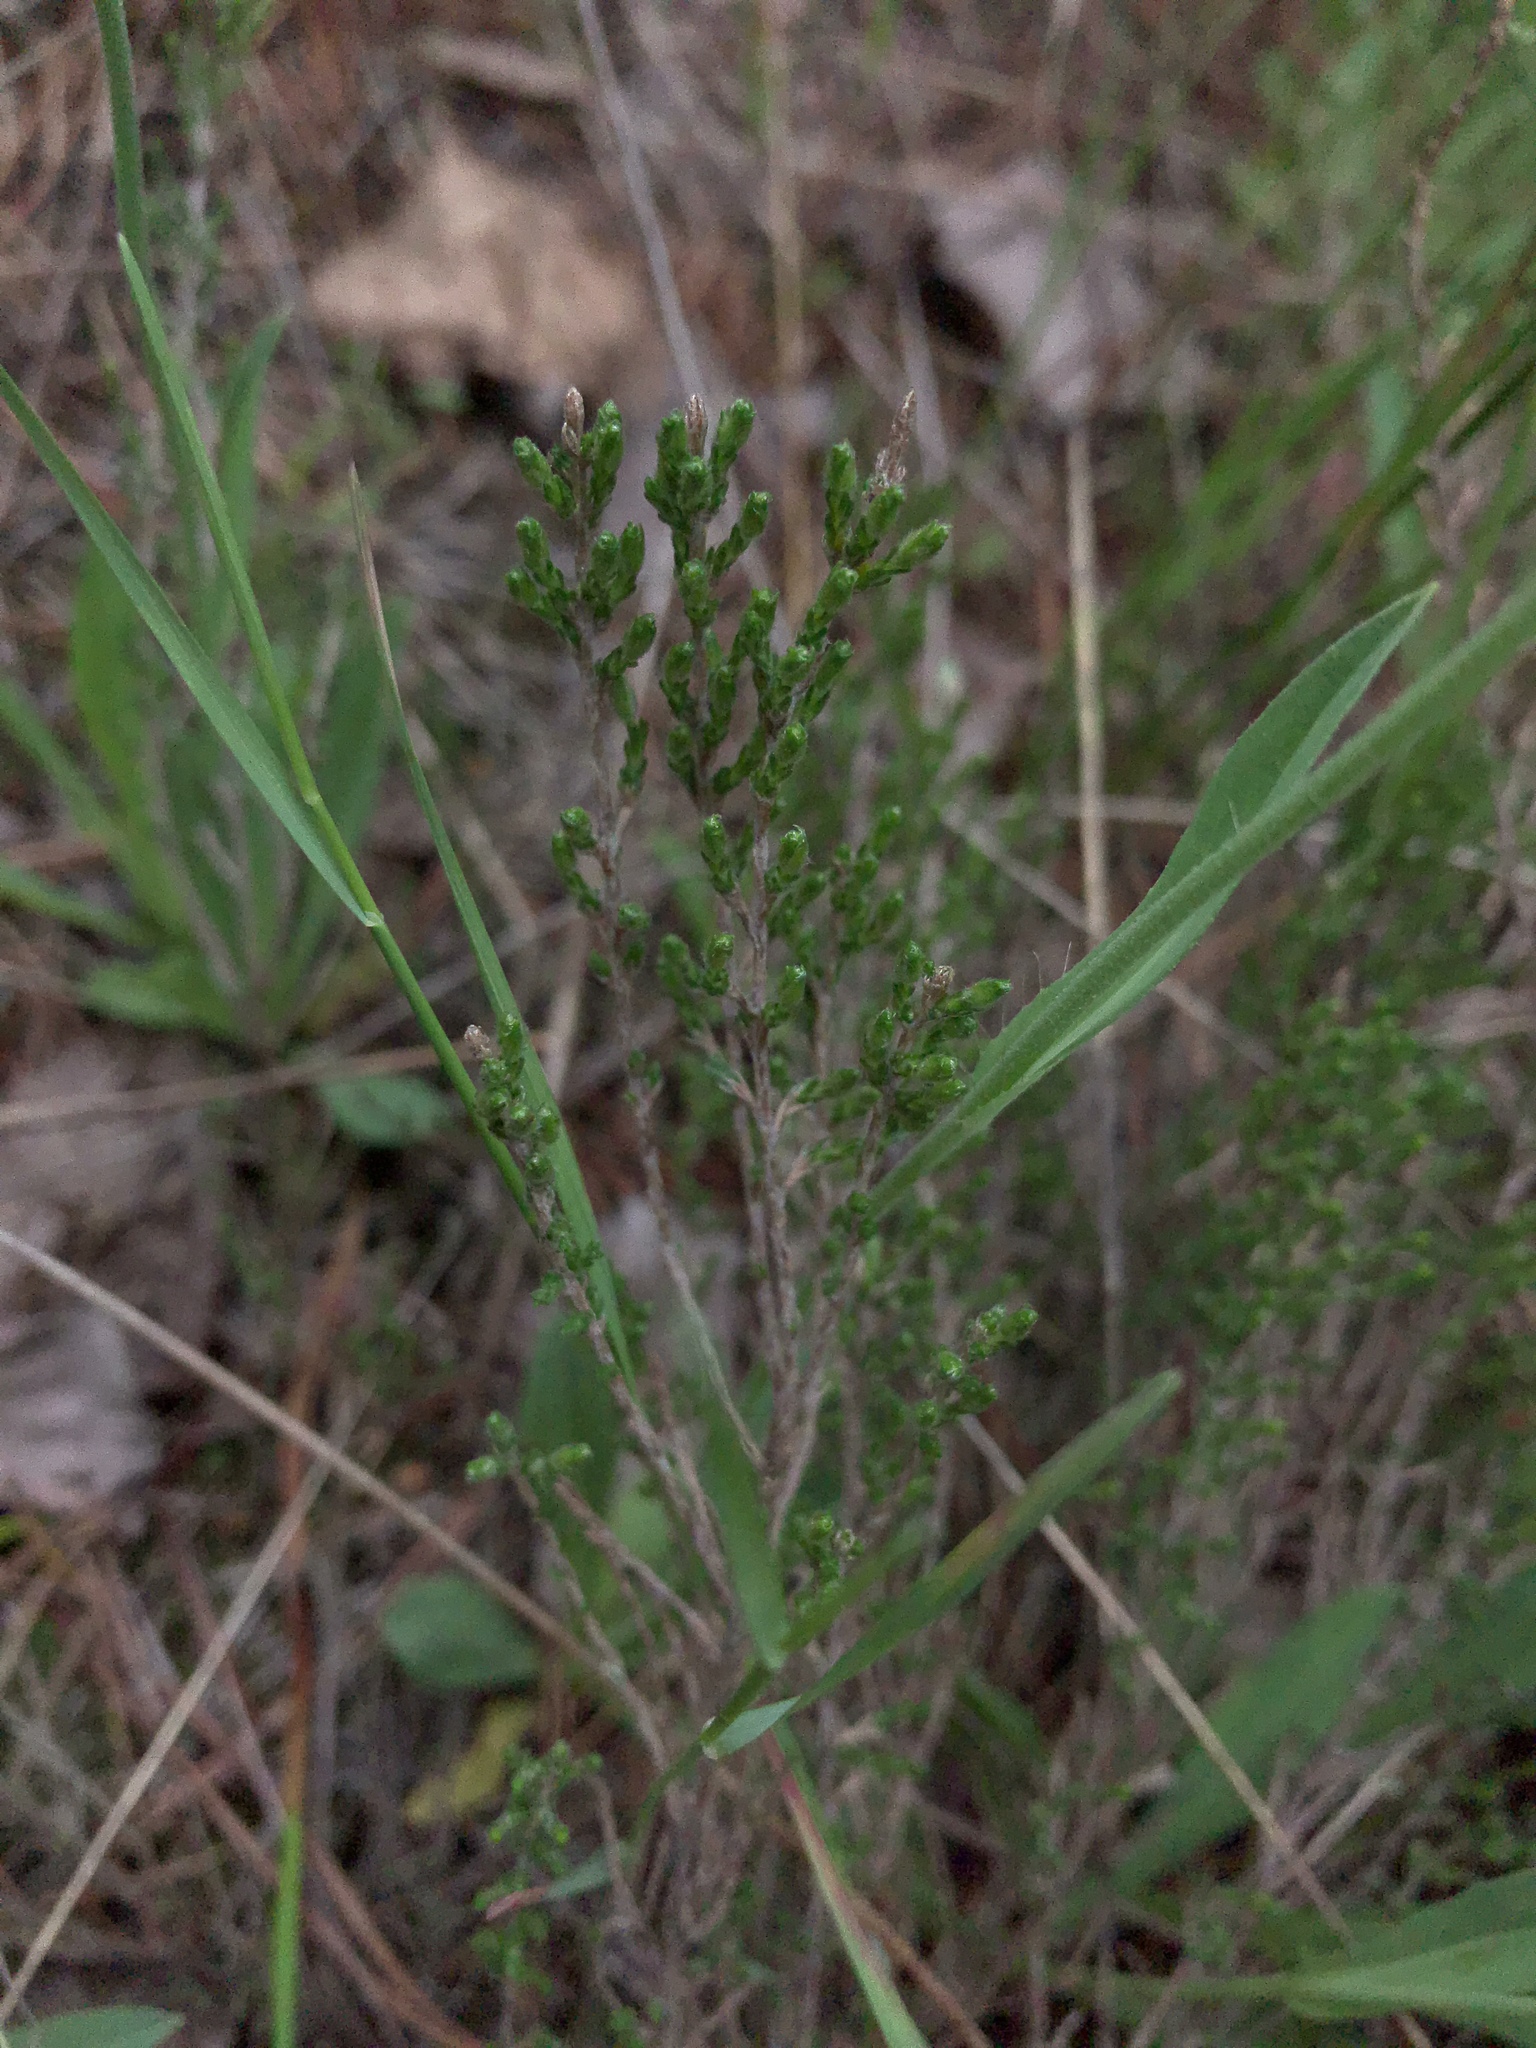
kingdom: Plantae
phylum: Tracheophyta
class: Magnoliopsida
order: Malvales
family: Cistaceae
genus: Hudsonia
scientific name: Hudsonia tomentosa
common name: Beach-heath
